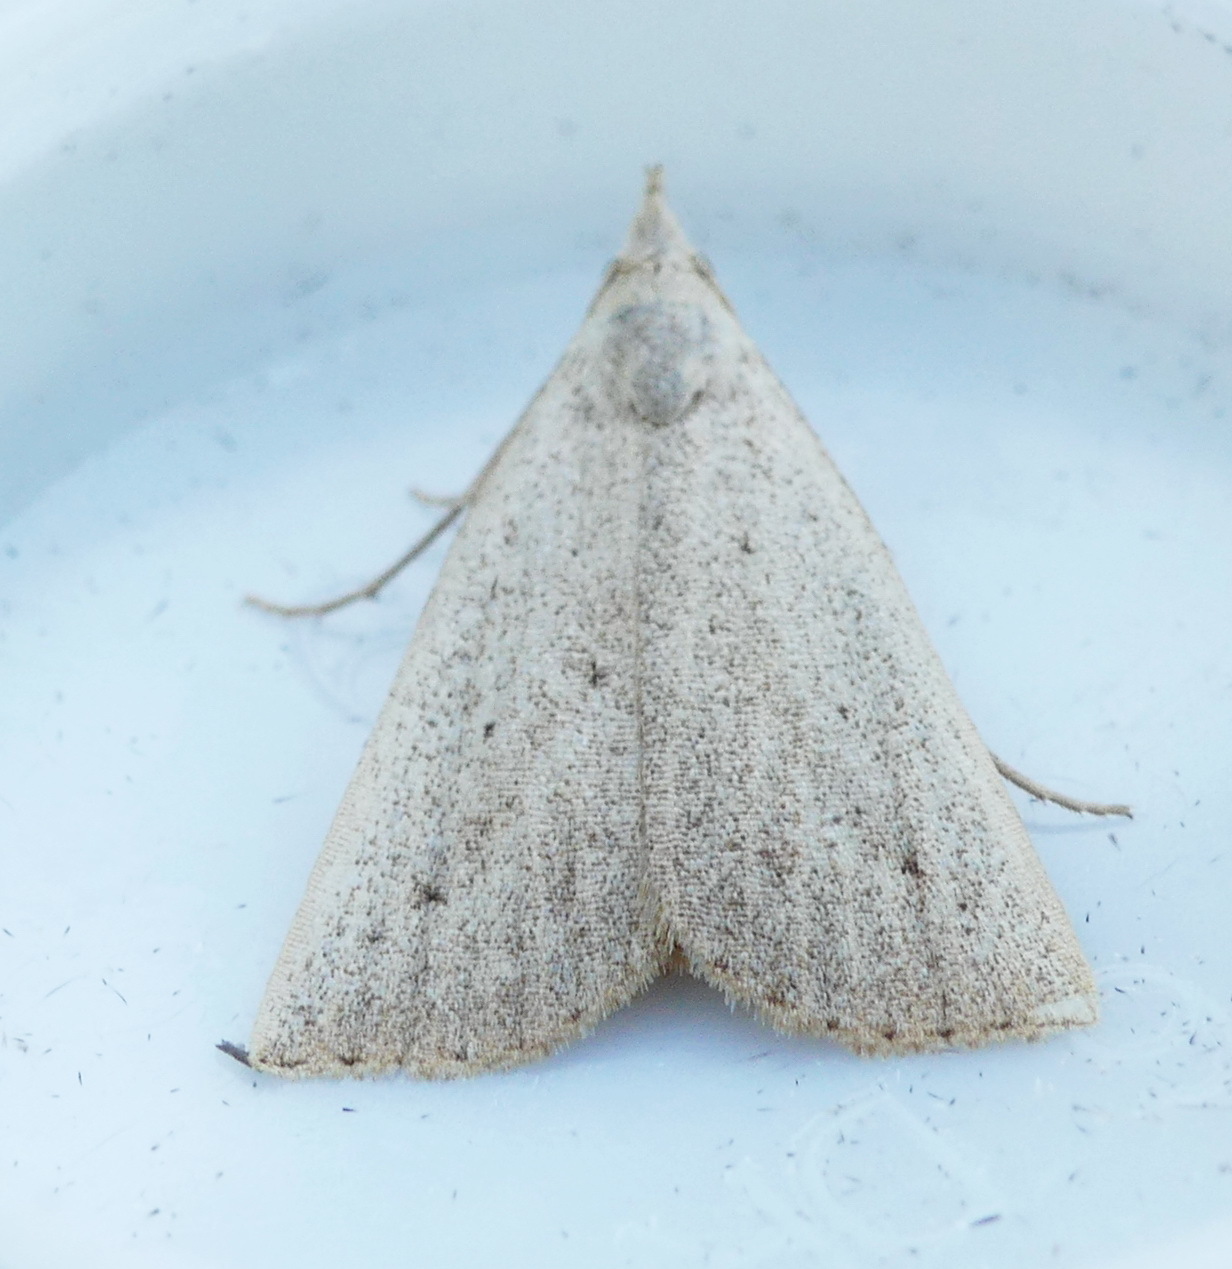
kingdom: Animalia
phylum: Arthropoda
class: Insecta
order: Lepidoptera
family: Erebidae
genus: Macrochilo
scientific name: Macrochilo louisiana
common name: Louisiana macrochilo
